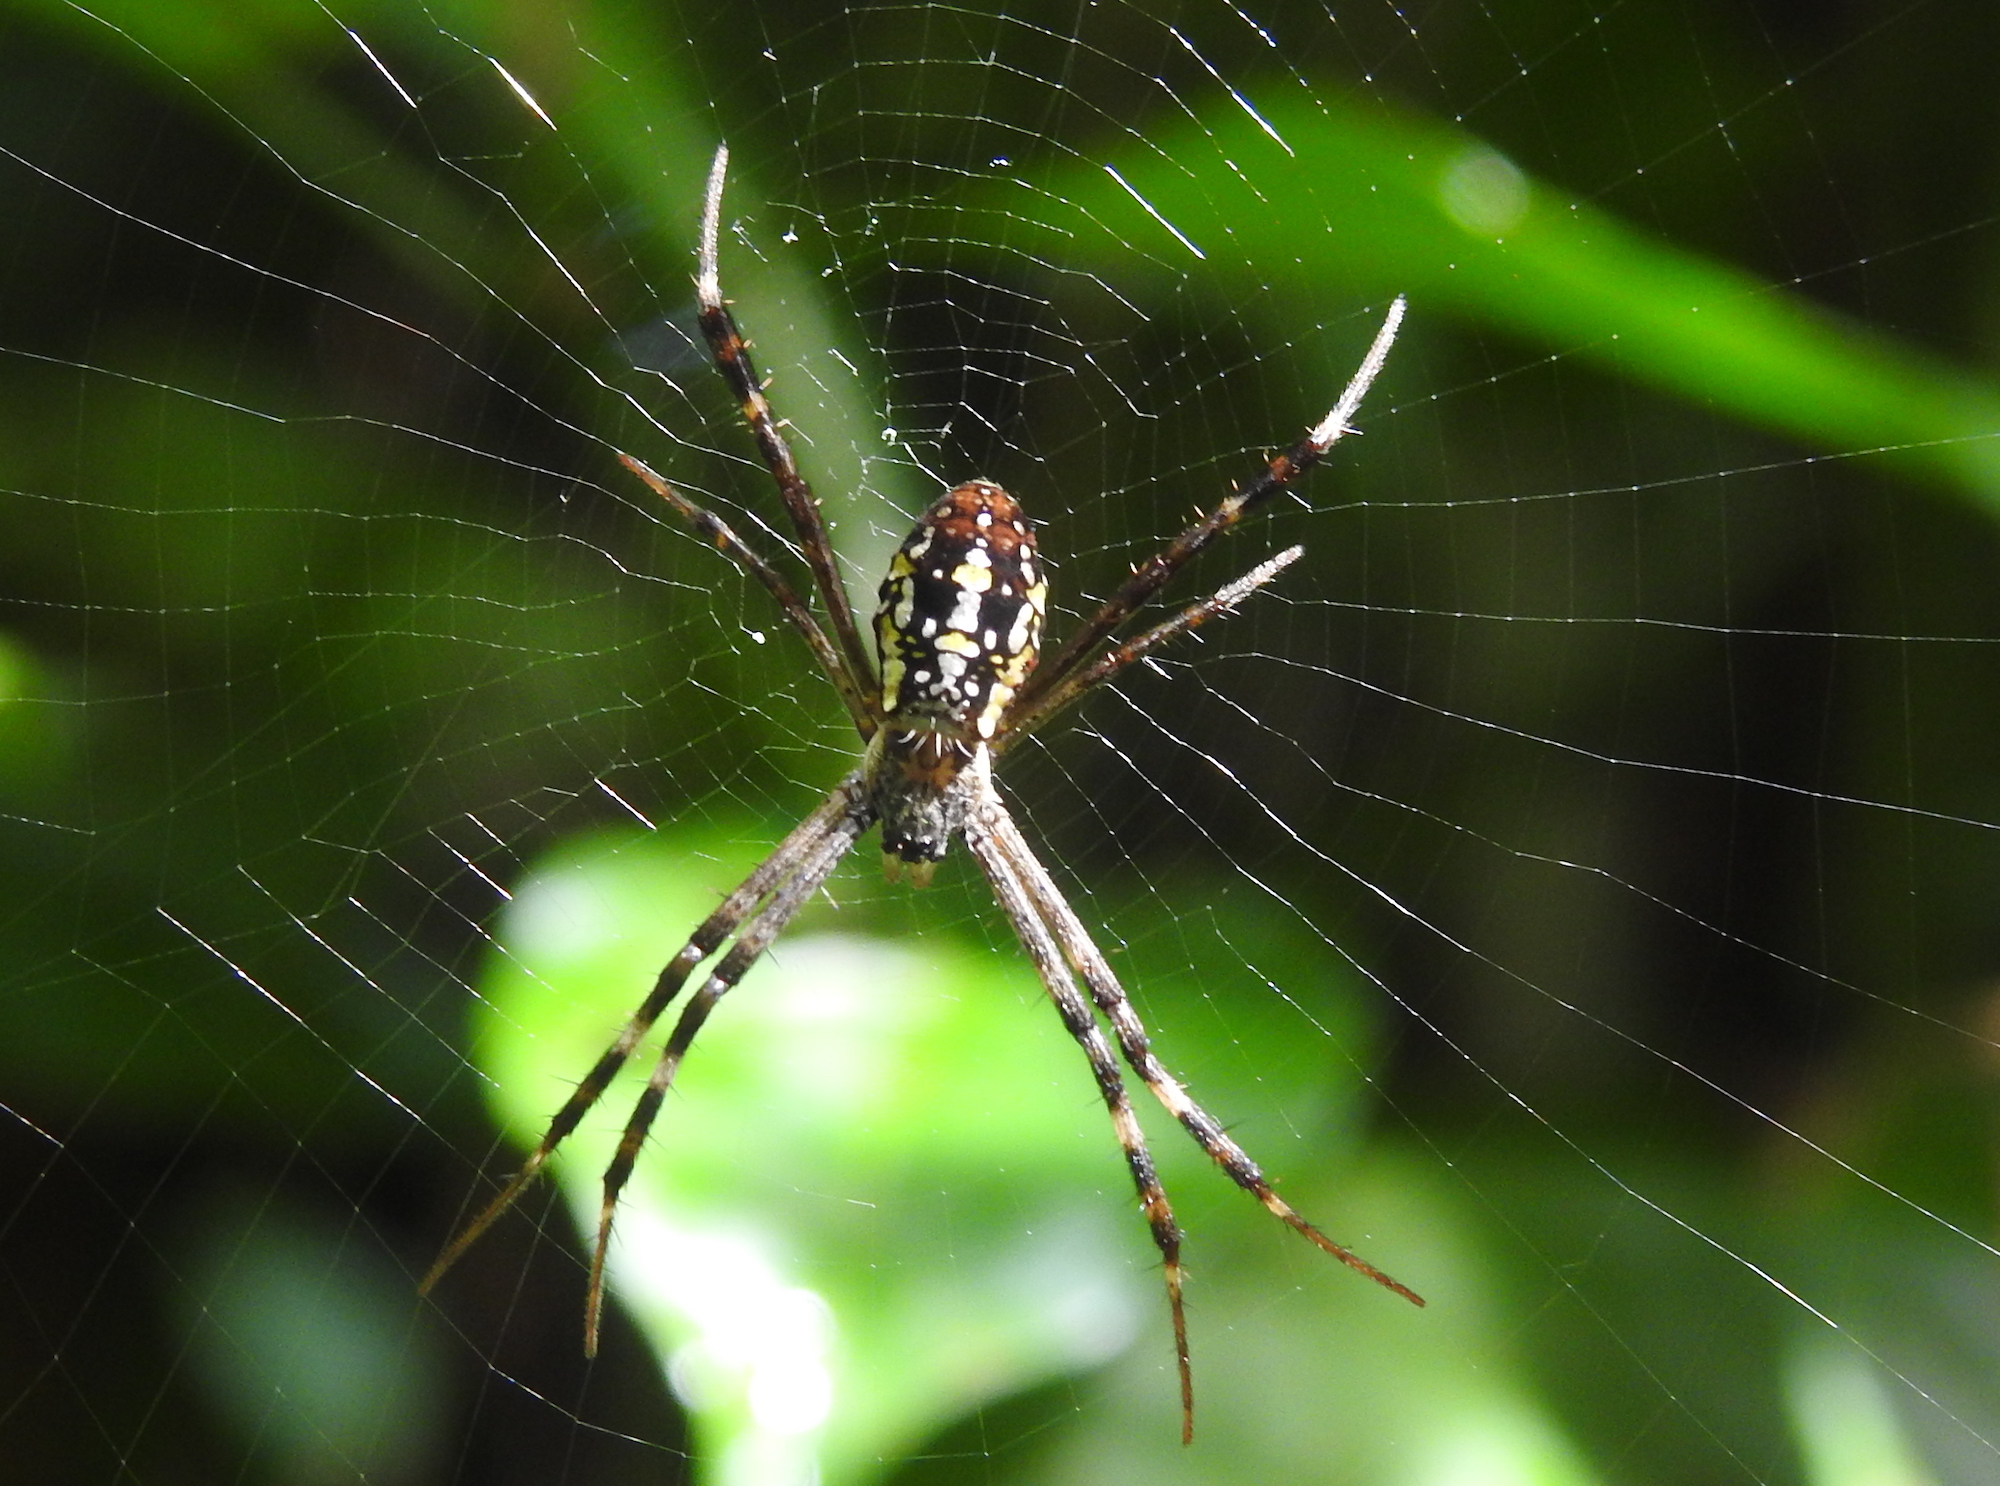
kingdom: Animalia
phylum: Arthropoda
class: Arachnida
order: Araneae
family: Araneidae
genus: Argiope
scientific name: Argiope dang
